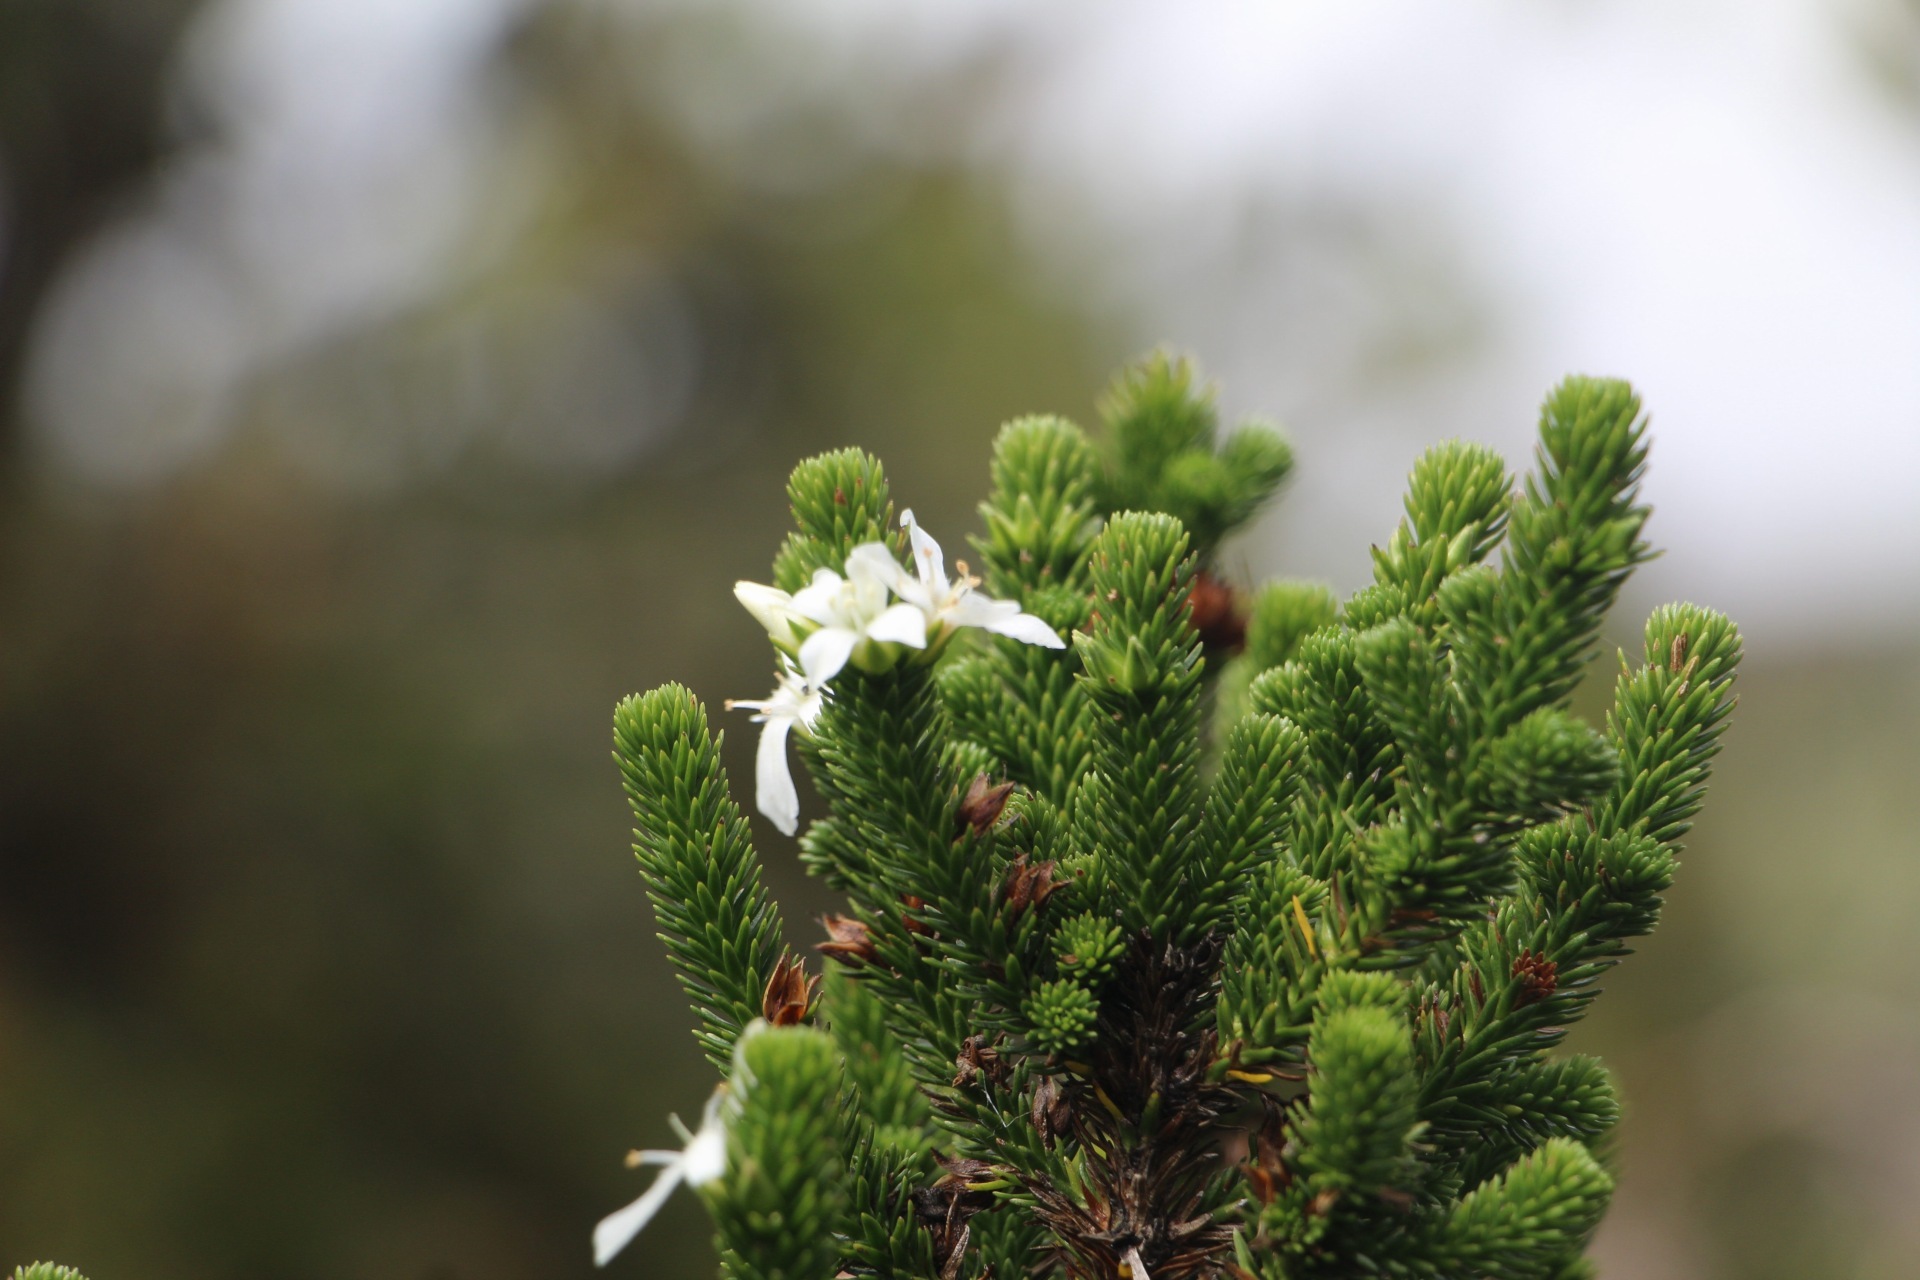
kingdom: Plantae
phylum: Tracheophyta
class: Magnoliopsida
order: Lamiales
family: Plantaginaceae
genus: Aragoa
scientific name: Aragoa abietina
